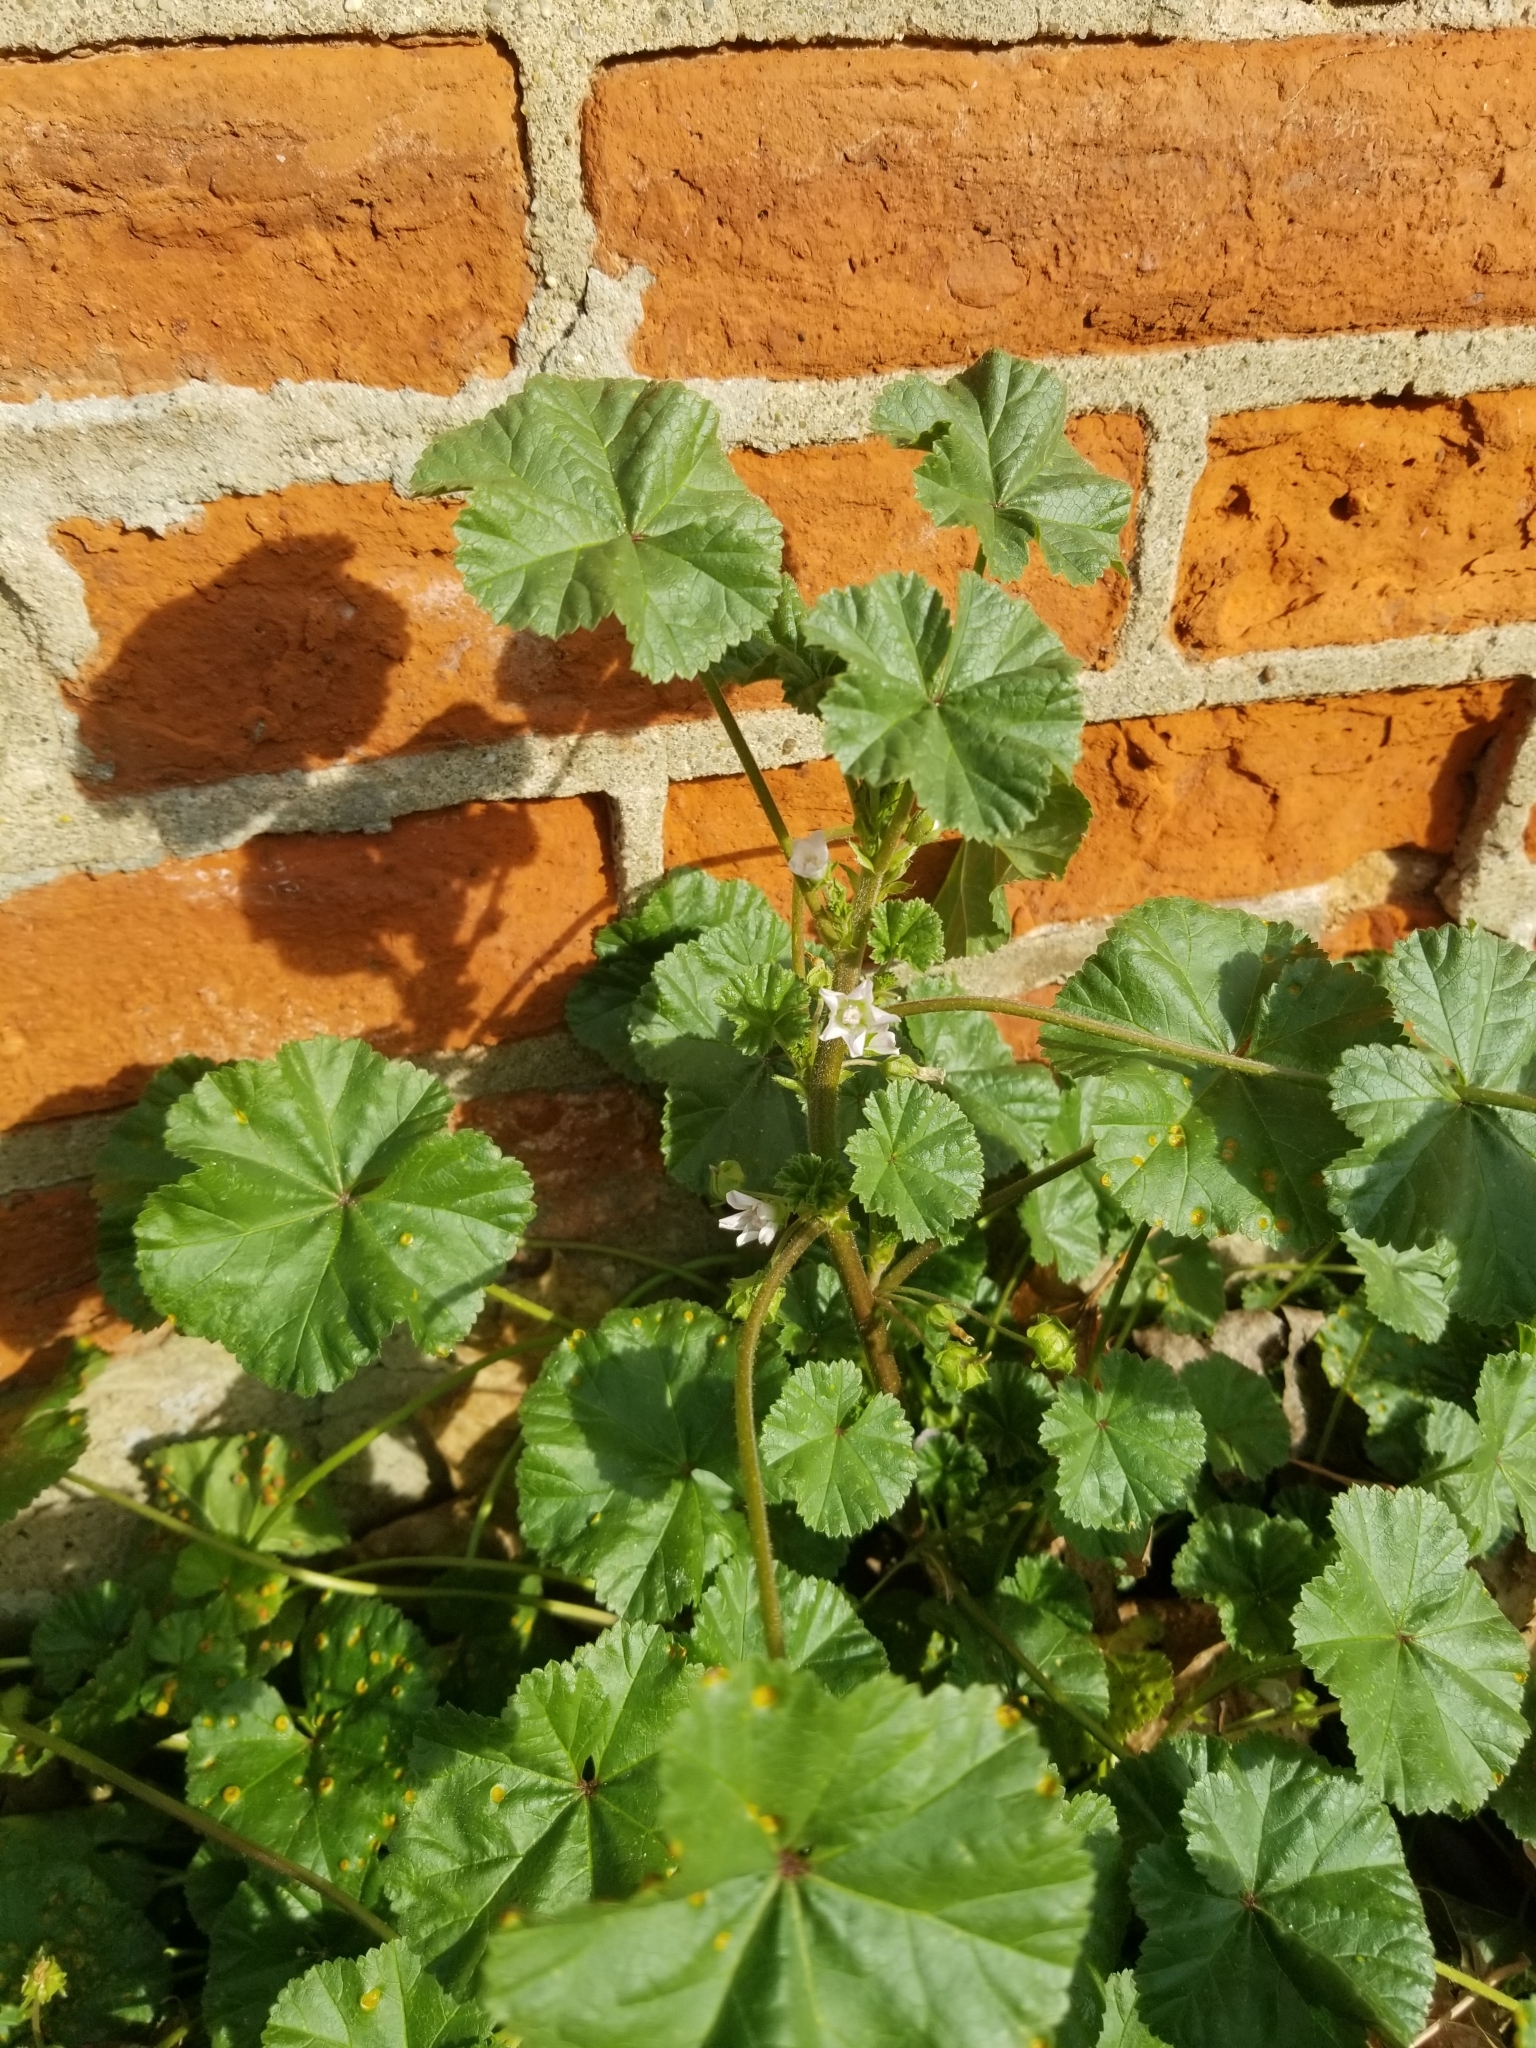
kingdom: Plantae
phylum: Tracheophyta
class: Magnoliopsida
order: Malvales
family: Malvaceae
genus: Malva
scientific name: Malva neglecta
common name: Common mallow
